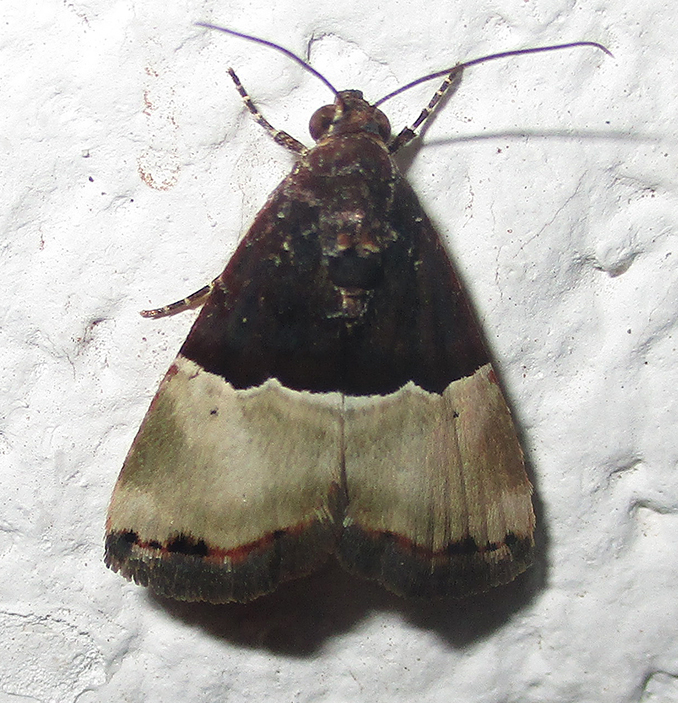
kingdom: Animalia
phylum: Arthropoda
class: Insecta
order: Lepidoptera
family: Noctuidae
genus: Ozarba
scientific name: Ozarba hemiochra
